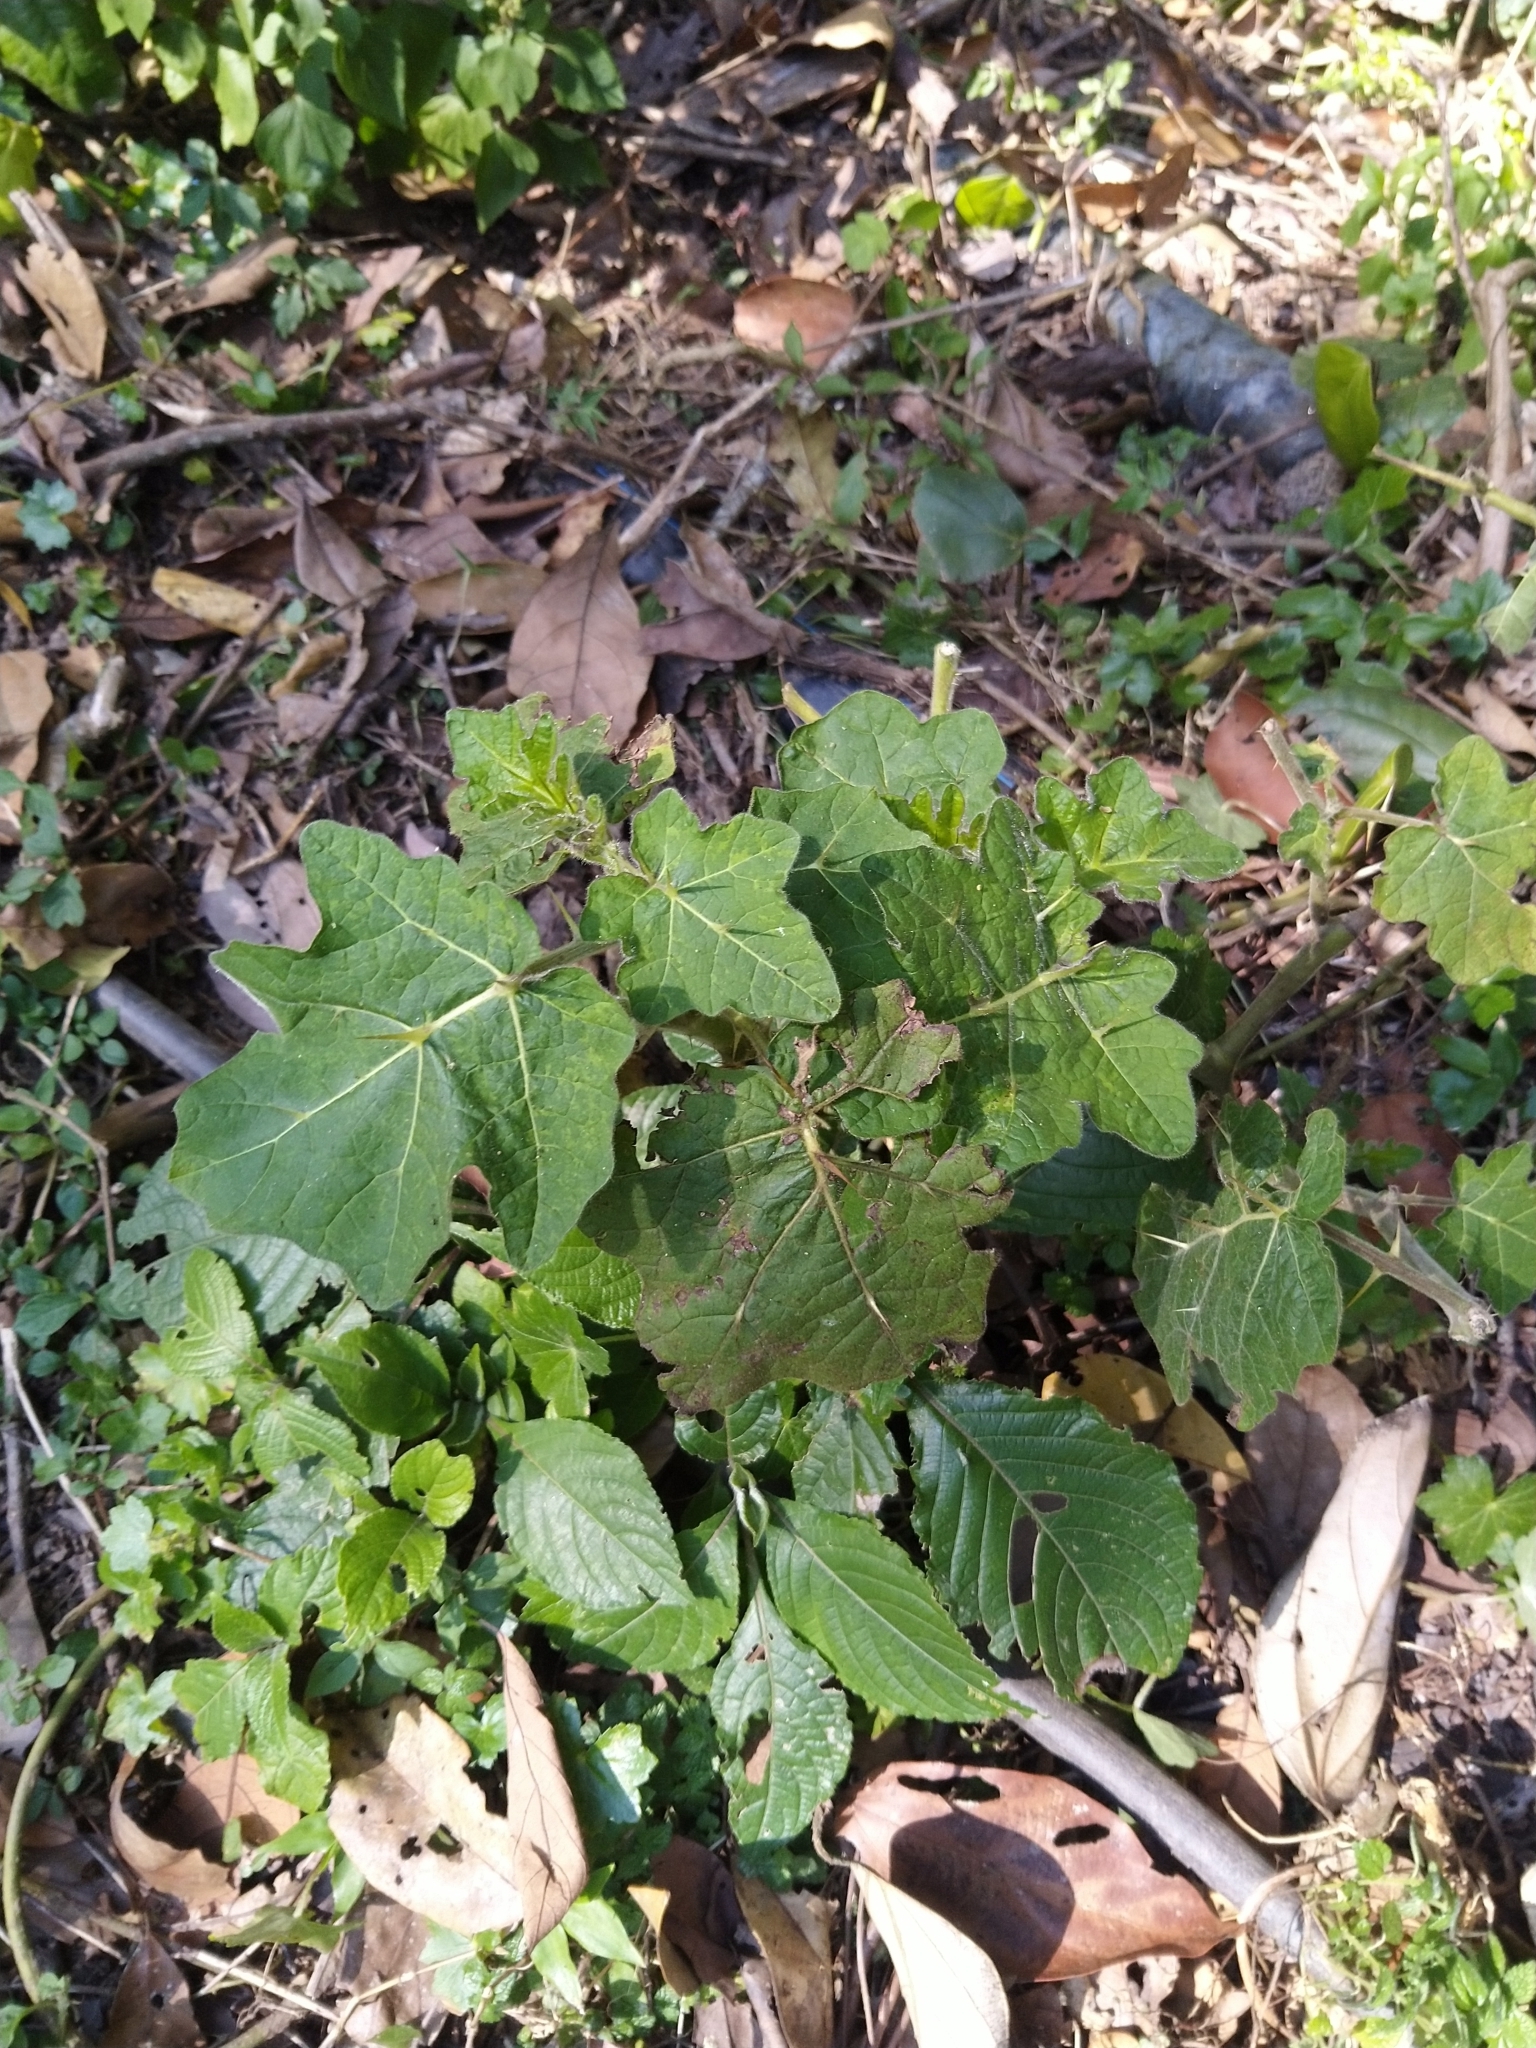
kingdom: Plantae
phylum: Tracheophyta
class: Magnoliopsida
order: Solanales
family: Solanaceae
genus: Solanum
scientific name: Solanum viarum
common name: Tropical soda apple
